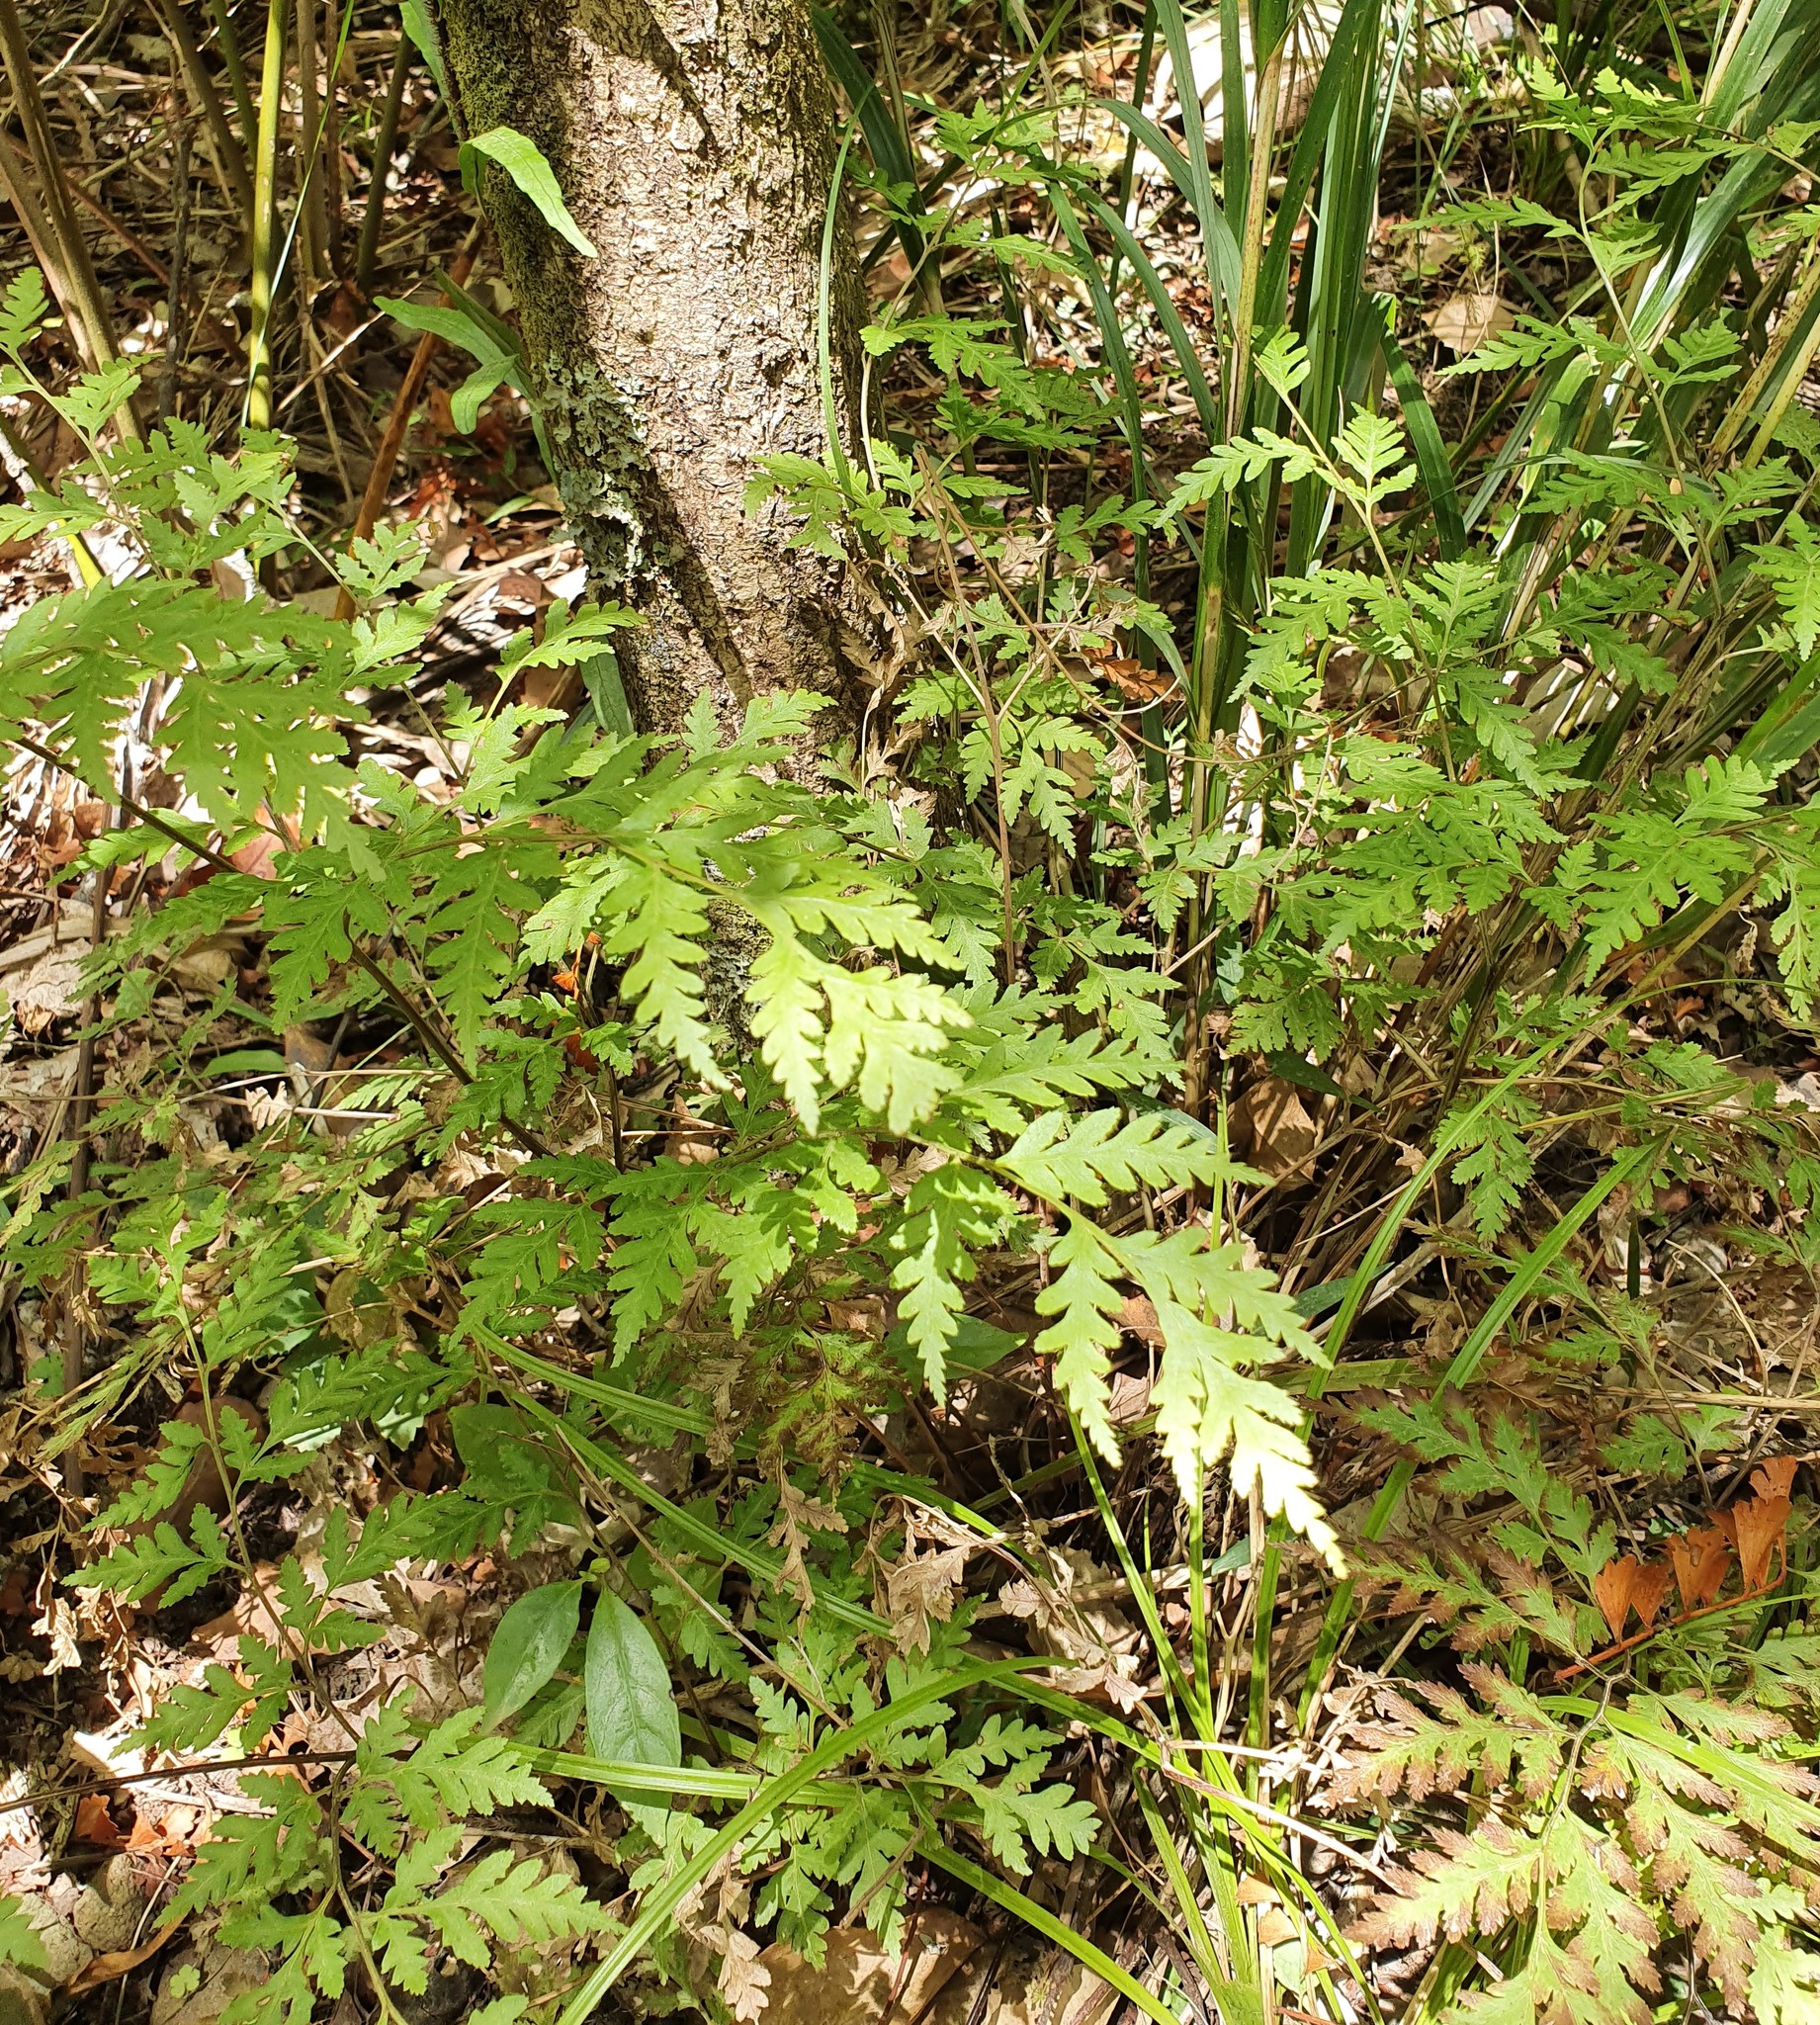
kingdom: Plantae
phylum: Tracheophyta
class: Polypodiopsida
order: Polypodiales
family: Pteridaceae
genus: Pteris
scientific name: Pteris macilenta
